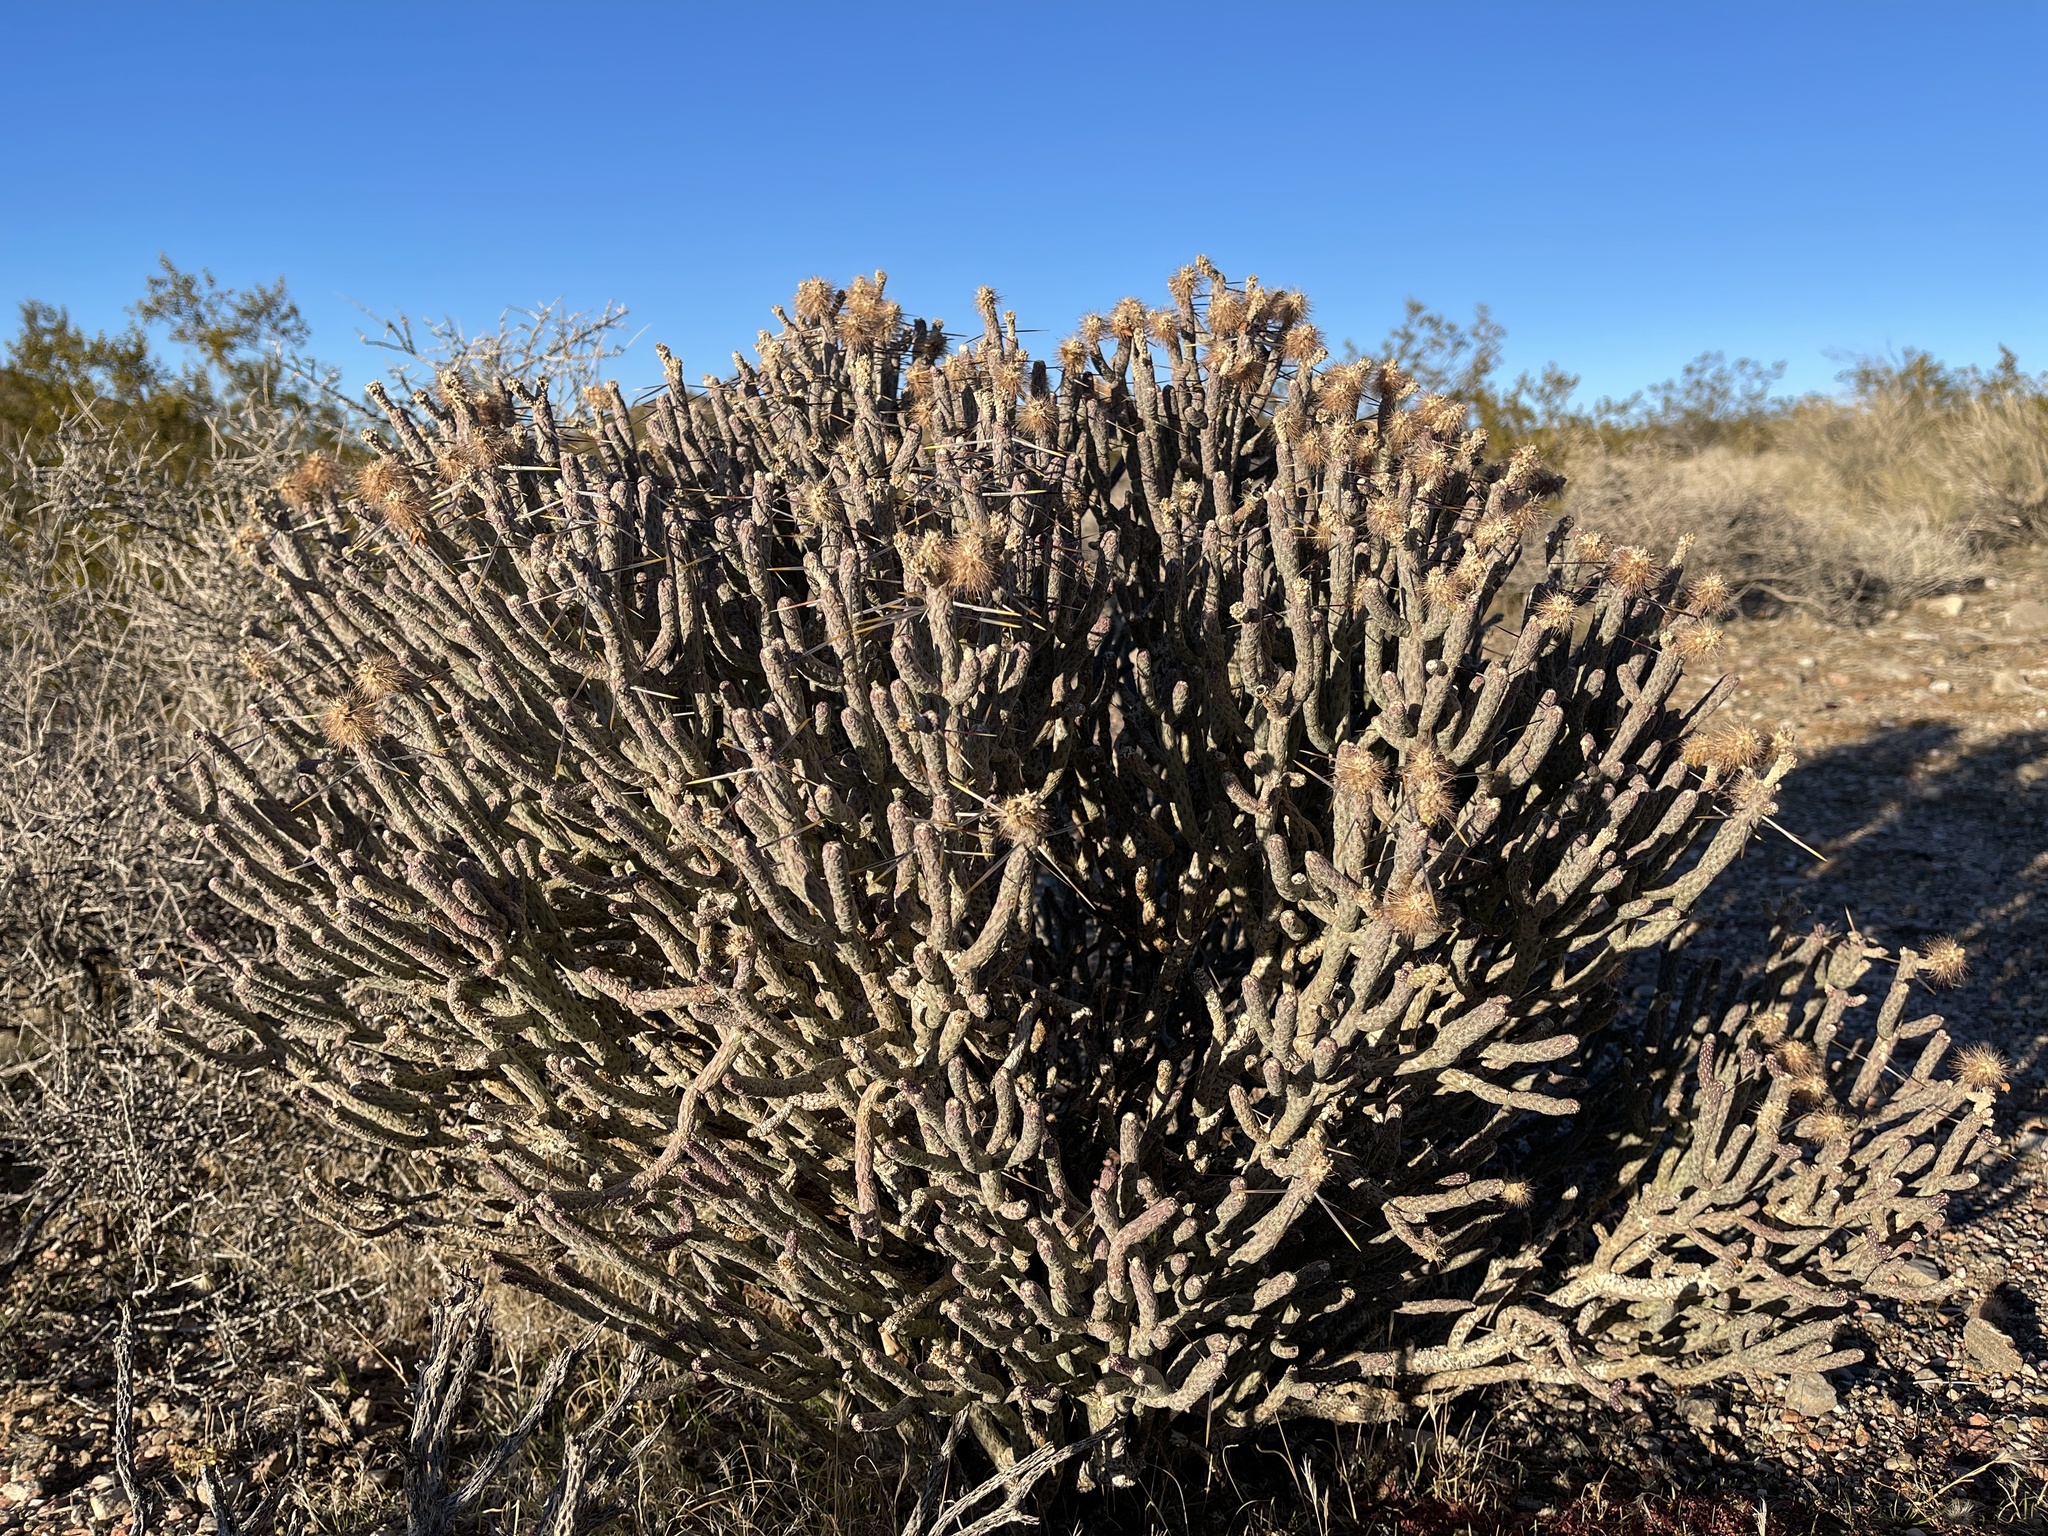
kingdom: Plantae
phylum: Tracheophyta
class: Magnoliopsida
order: Caryophyllales
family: Cactaceae
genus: Cylindropuntia
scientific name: Cylindropuntia ramosissima
